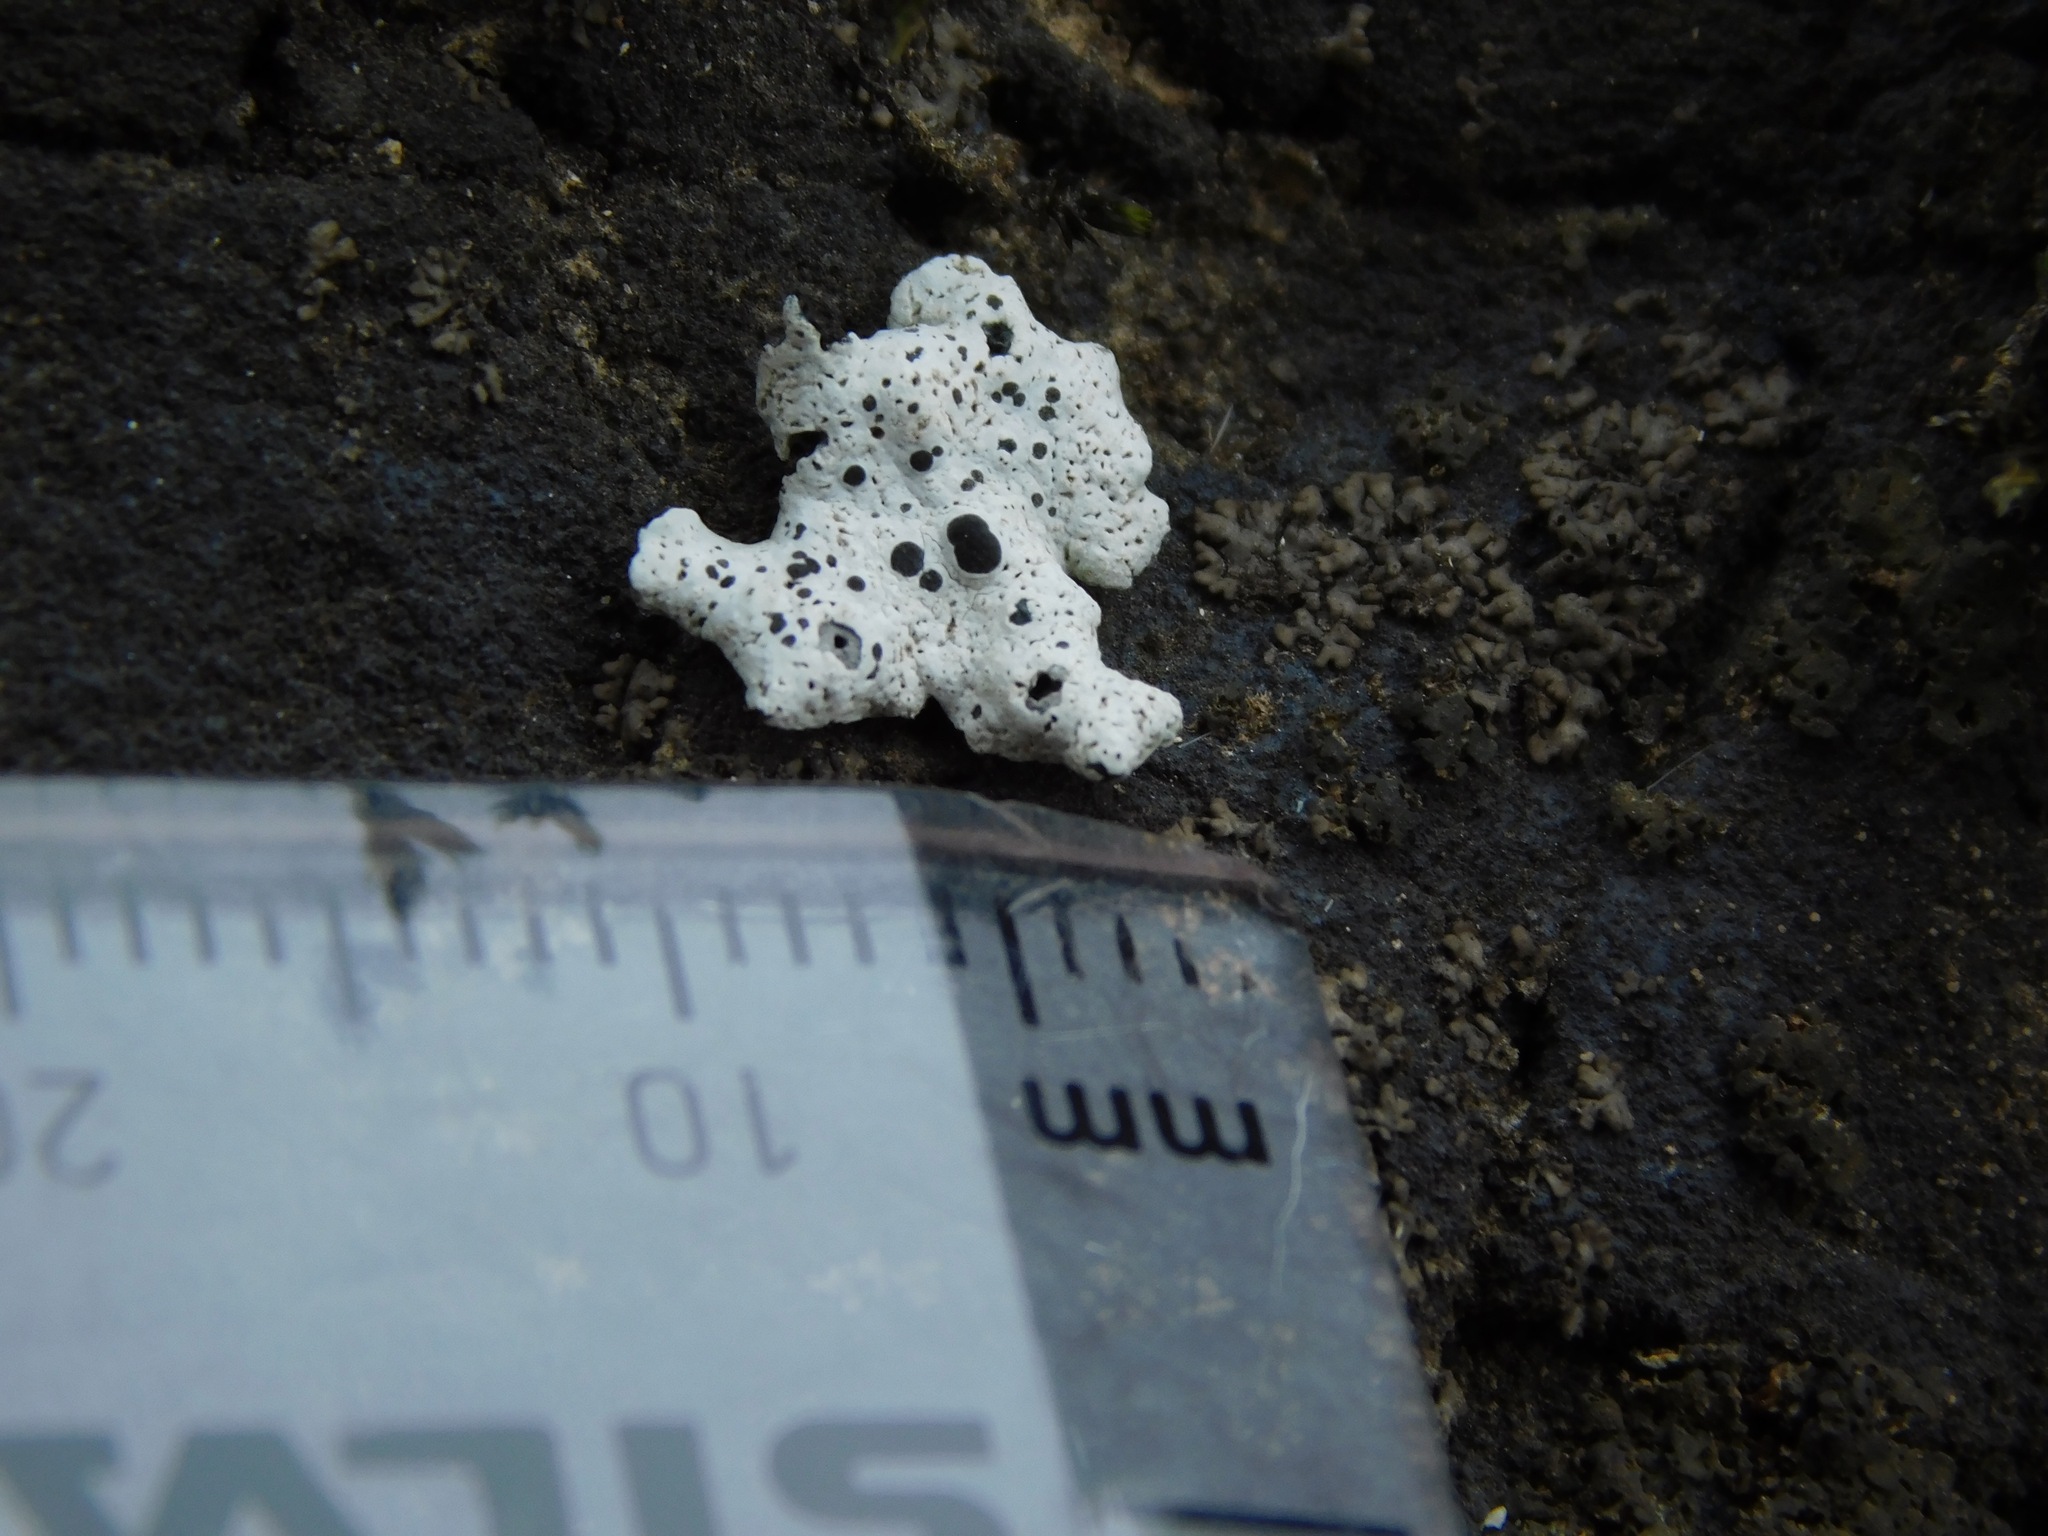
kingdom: Fungi
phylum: Ascomycota
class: Lecanoromycetes
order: Caliciales
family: Caliciaceae
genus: Dermiscellum
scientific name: Dermiscellum oulocheilum
